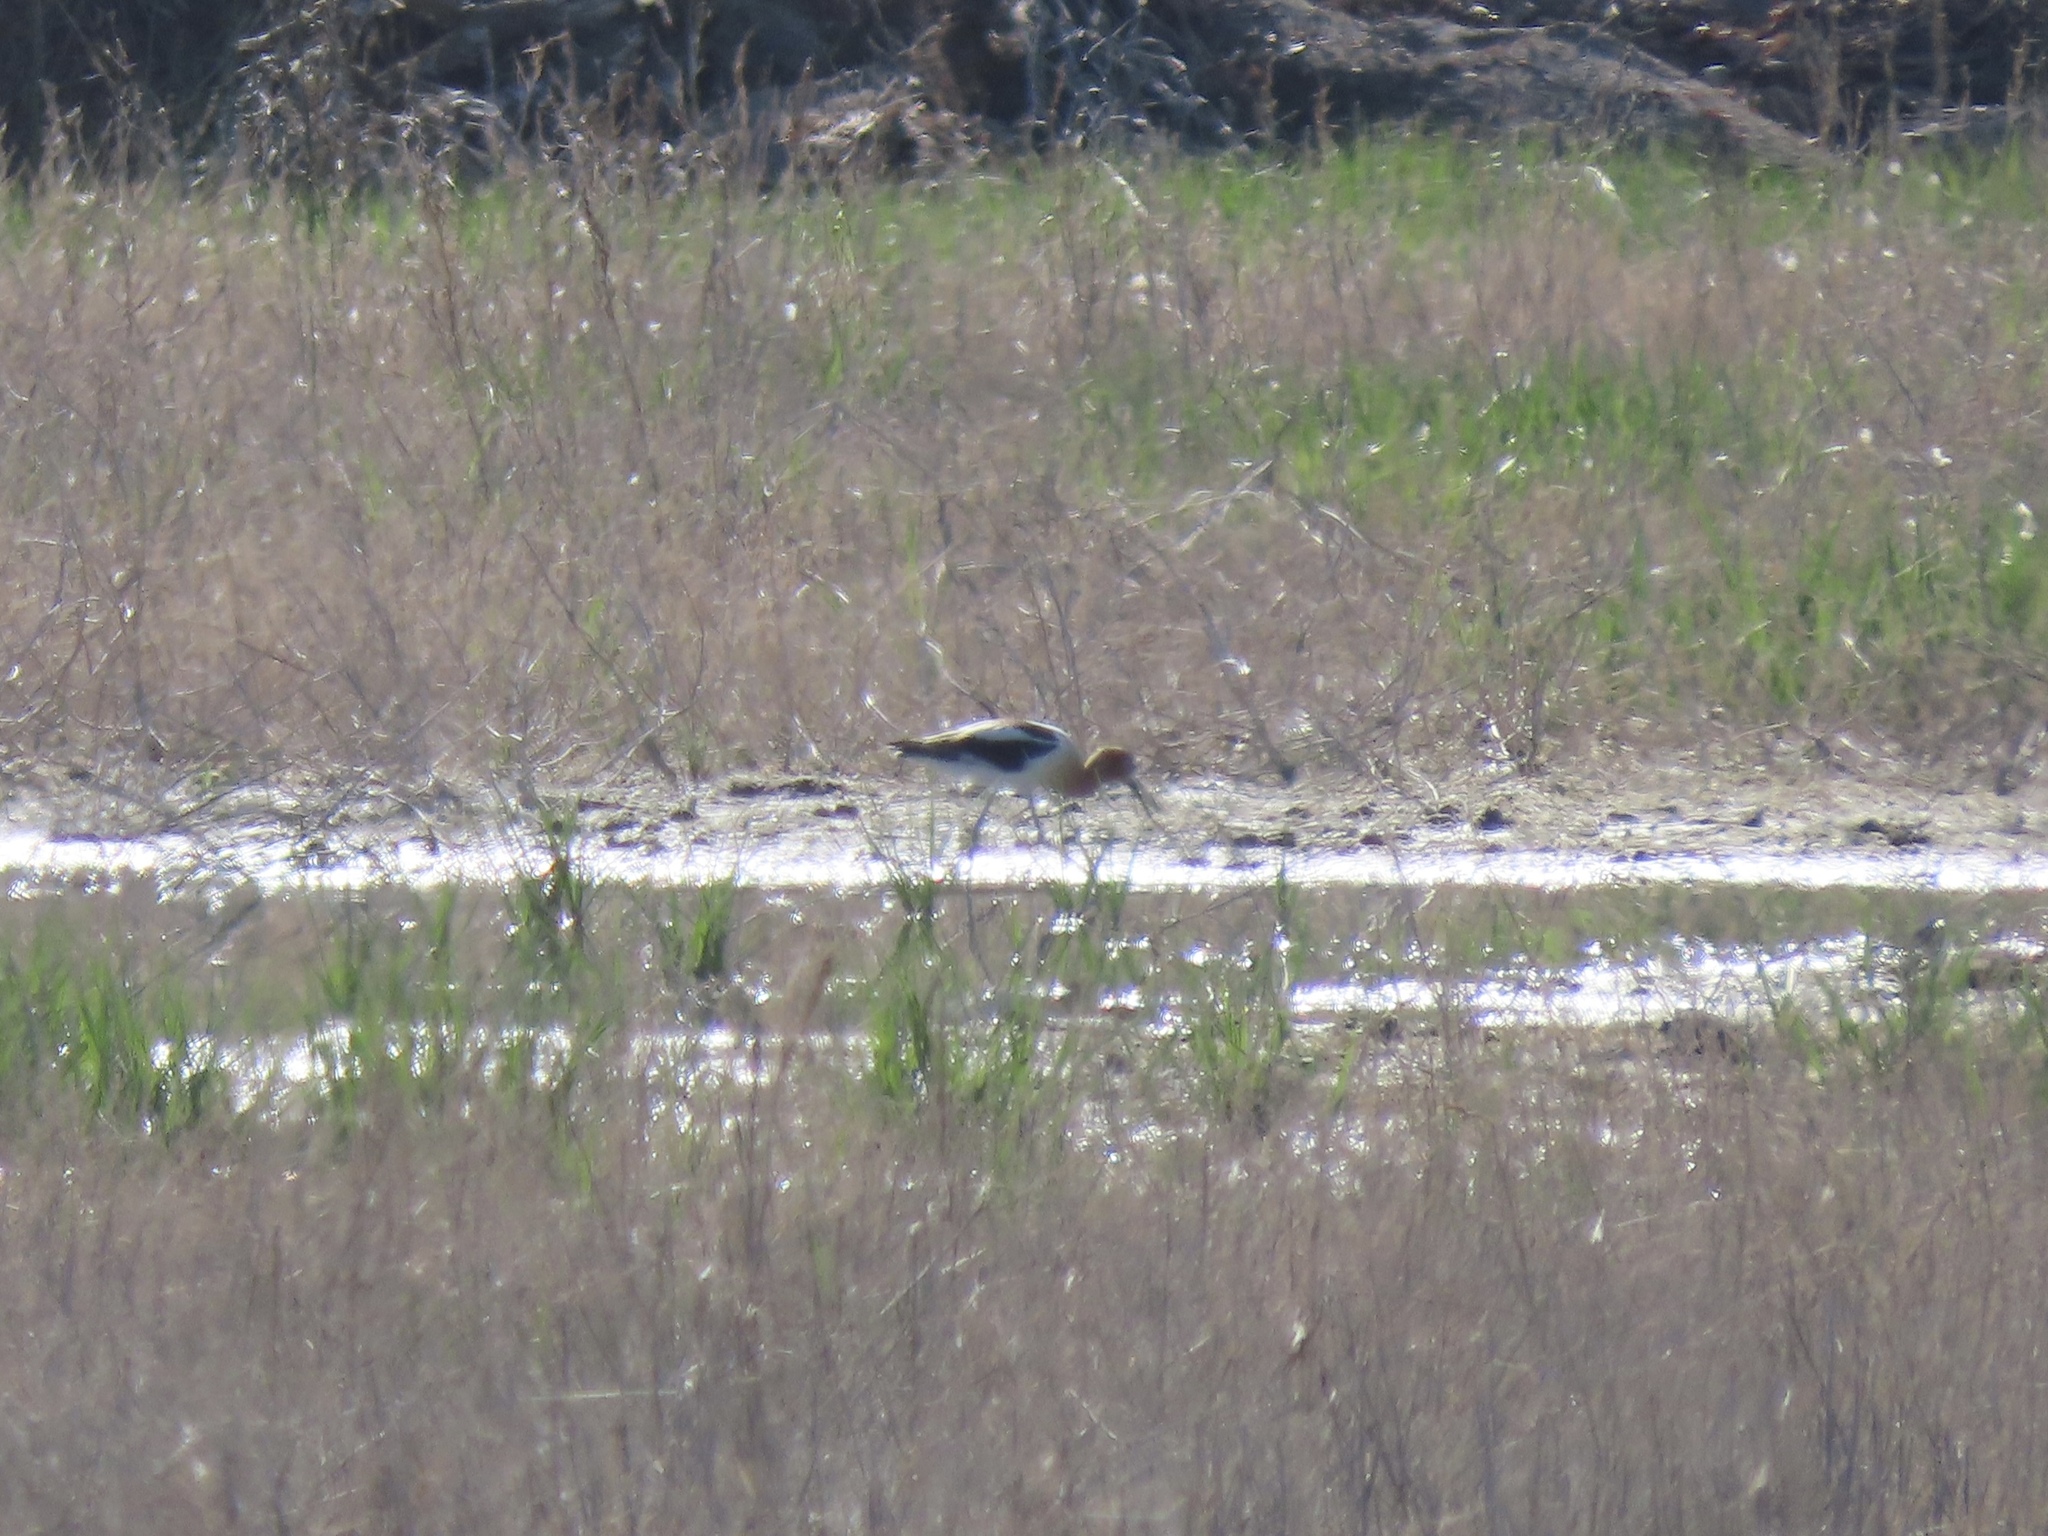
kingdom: Animalia
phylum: Chordata
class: Aves
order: Charadriiformes
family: Recurvirostridae
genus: Recurvirostra
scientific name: Recurvirostra americana
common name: American avocet
